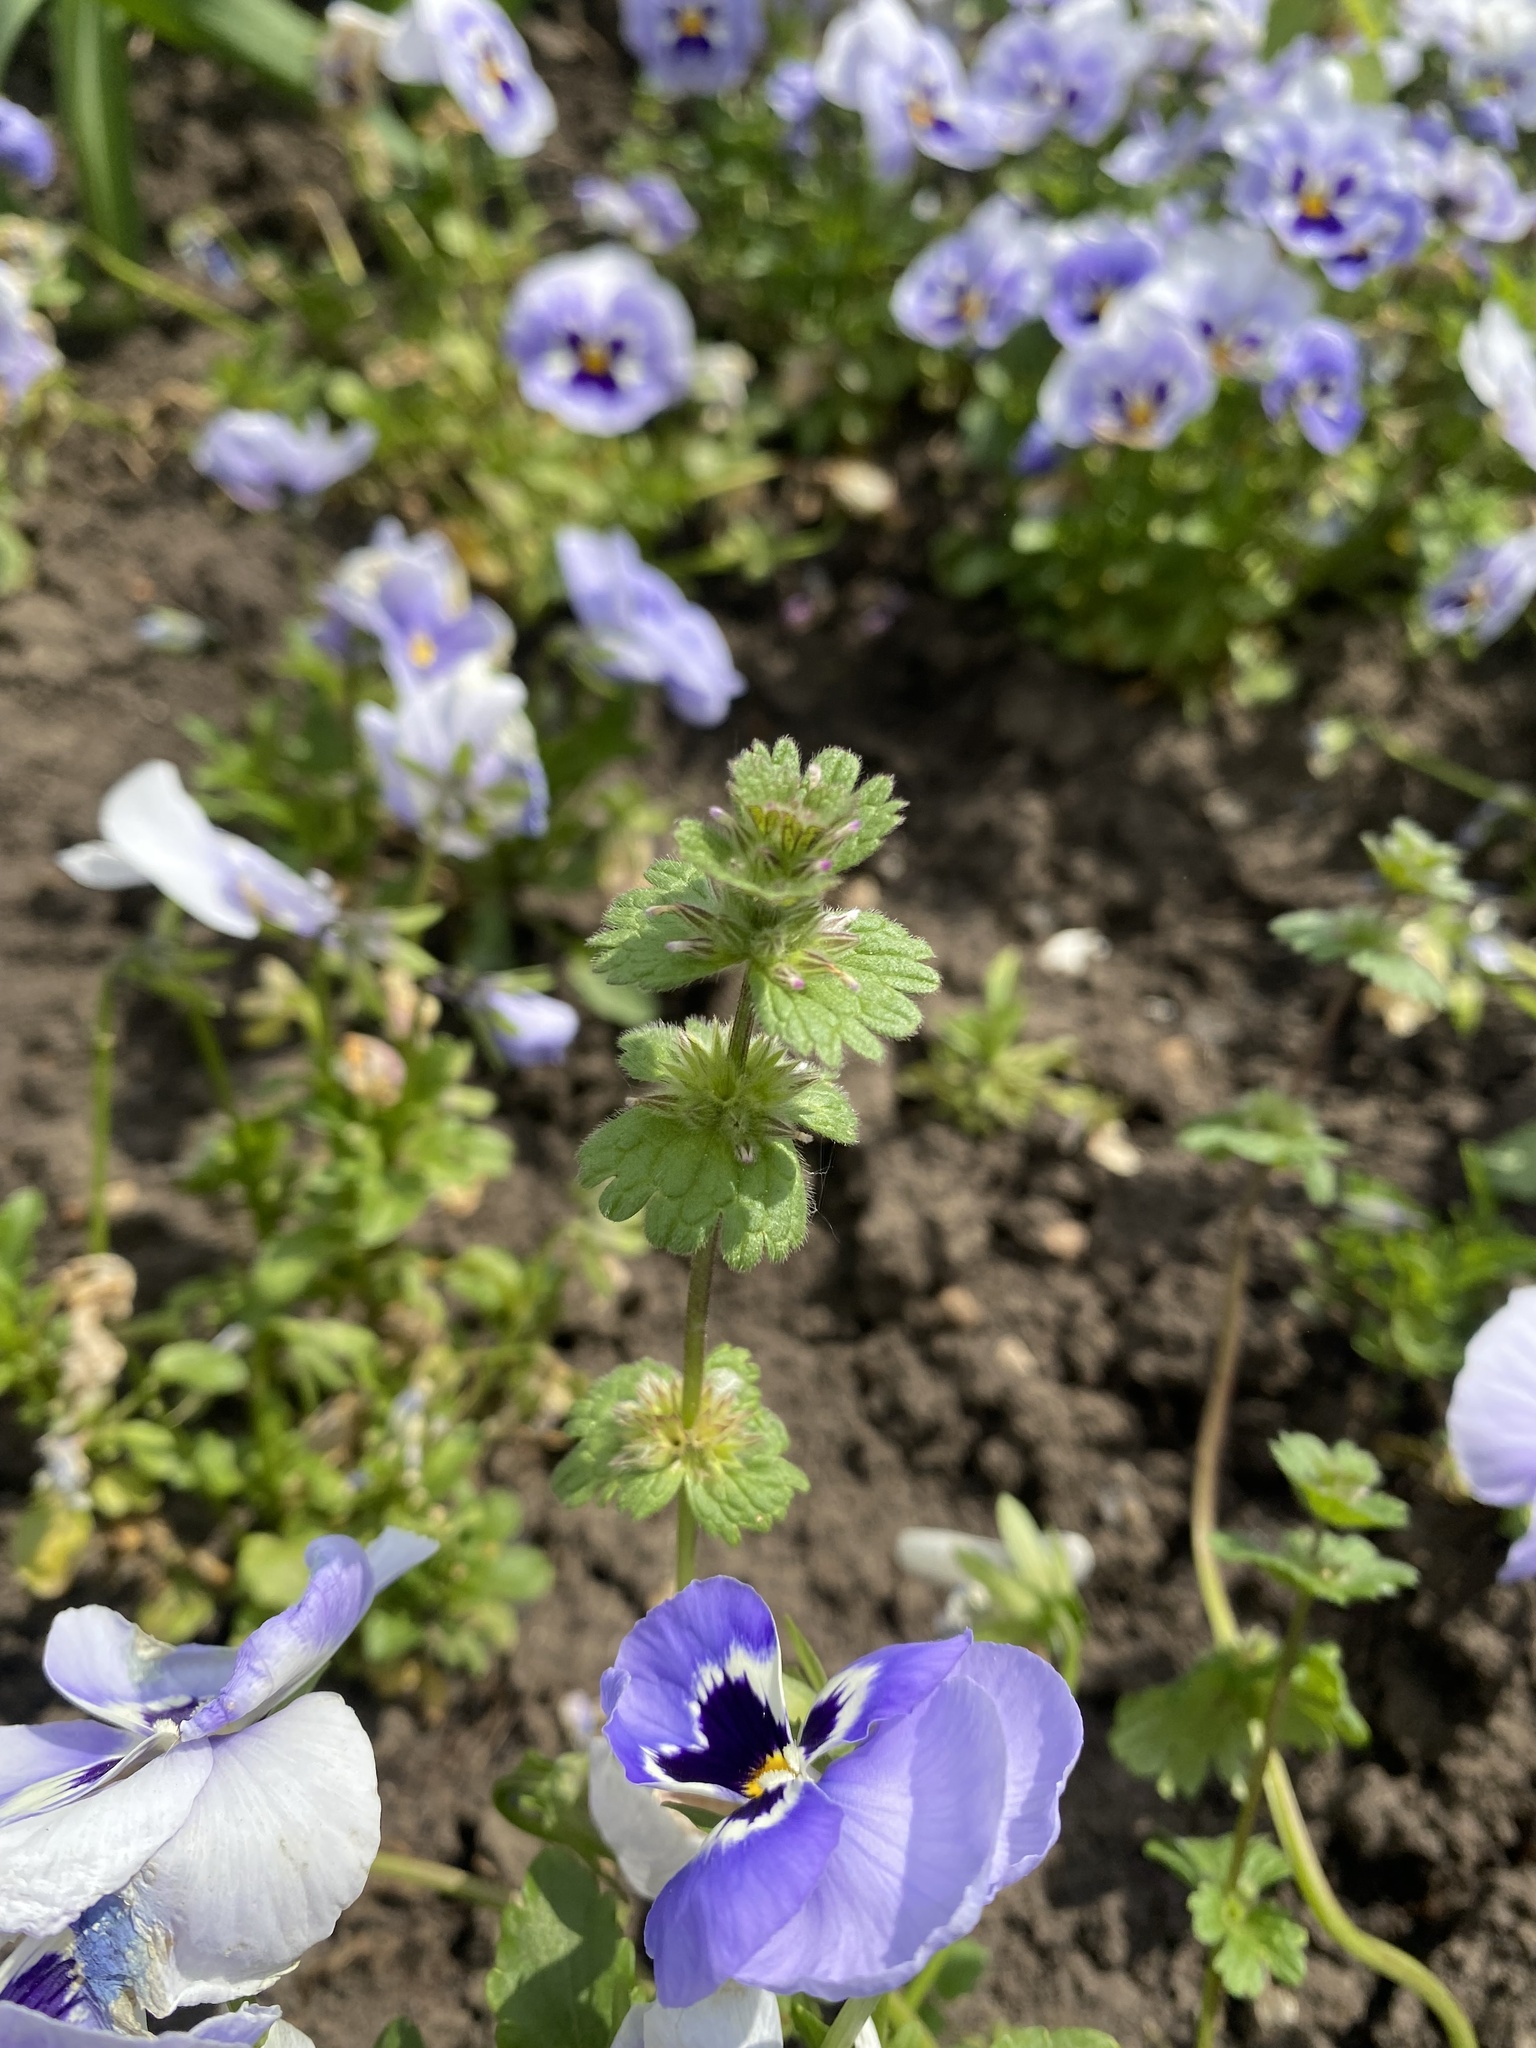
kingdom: Plantae
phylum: Tracheophyta
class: Magnoliopsida
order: Lamiales
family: Lamiaceae
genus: Lamium
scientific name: Lamium amplexicaule
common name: Henbit dead-nettle
